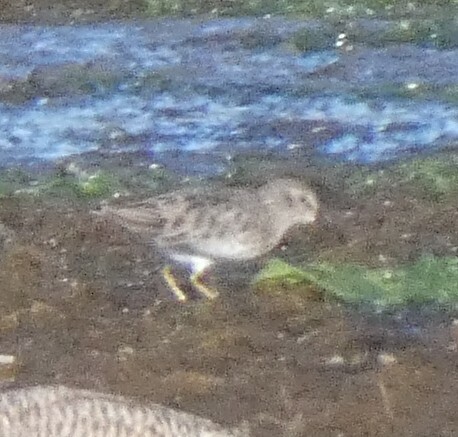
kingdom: Animalia
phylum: Chordata
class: Aves
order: Charadriiformes
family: Scolopacidae
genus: Calidris
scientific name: Calidris minutilla
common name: Least sandpiper
